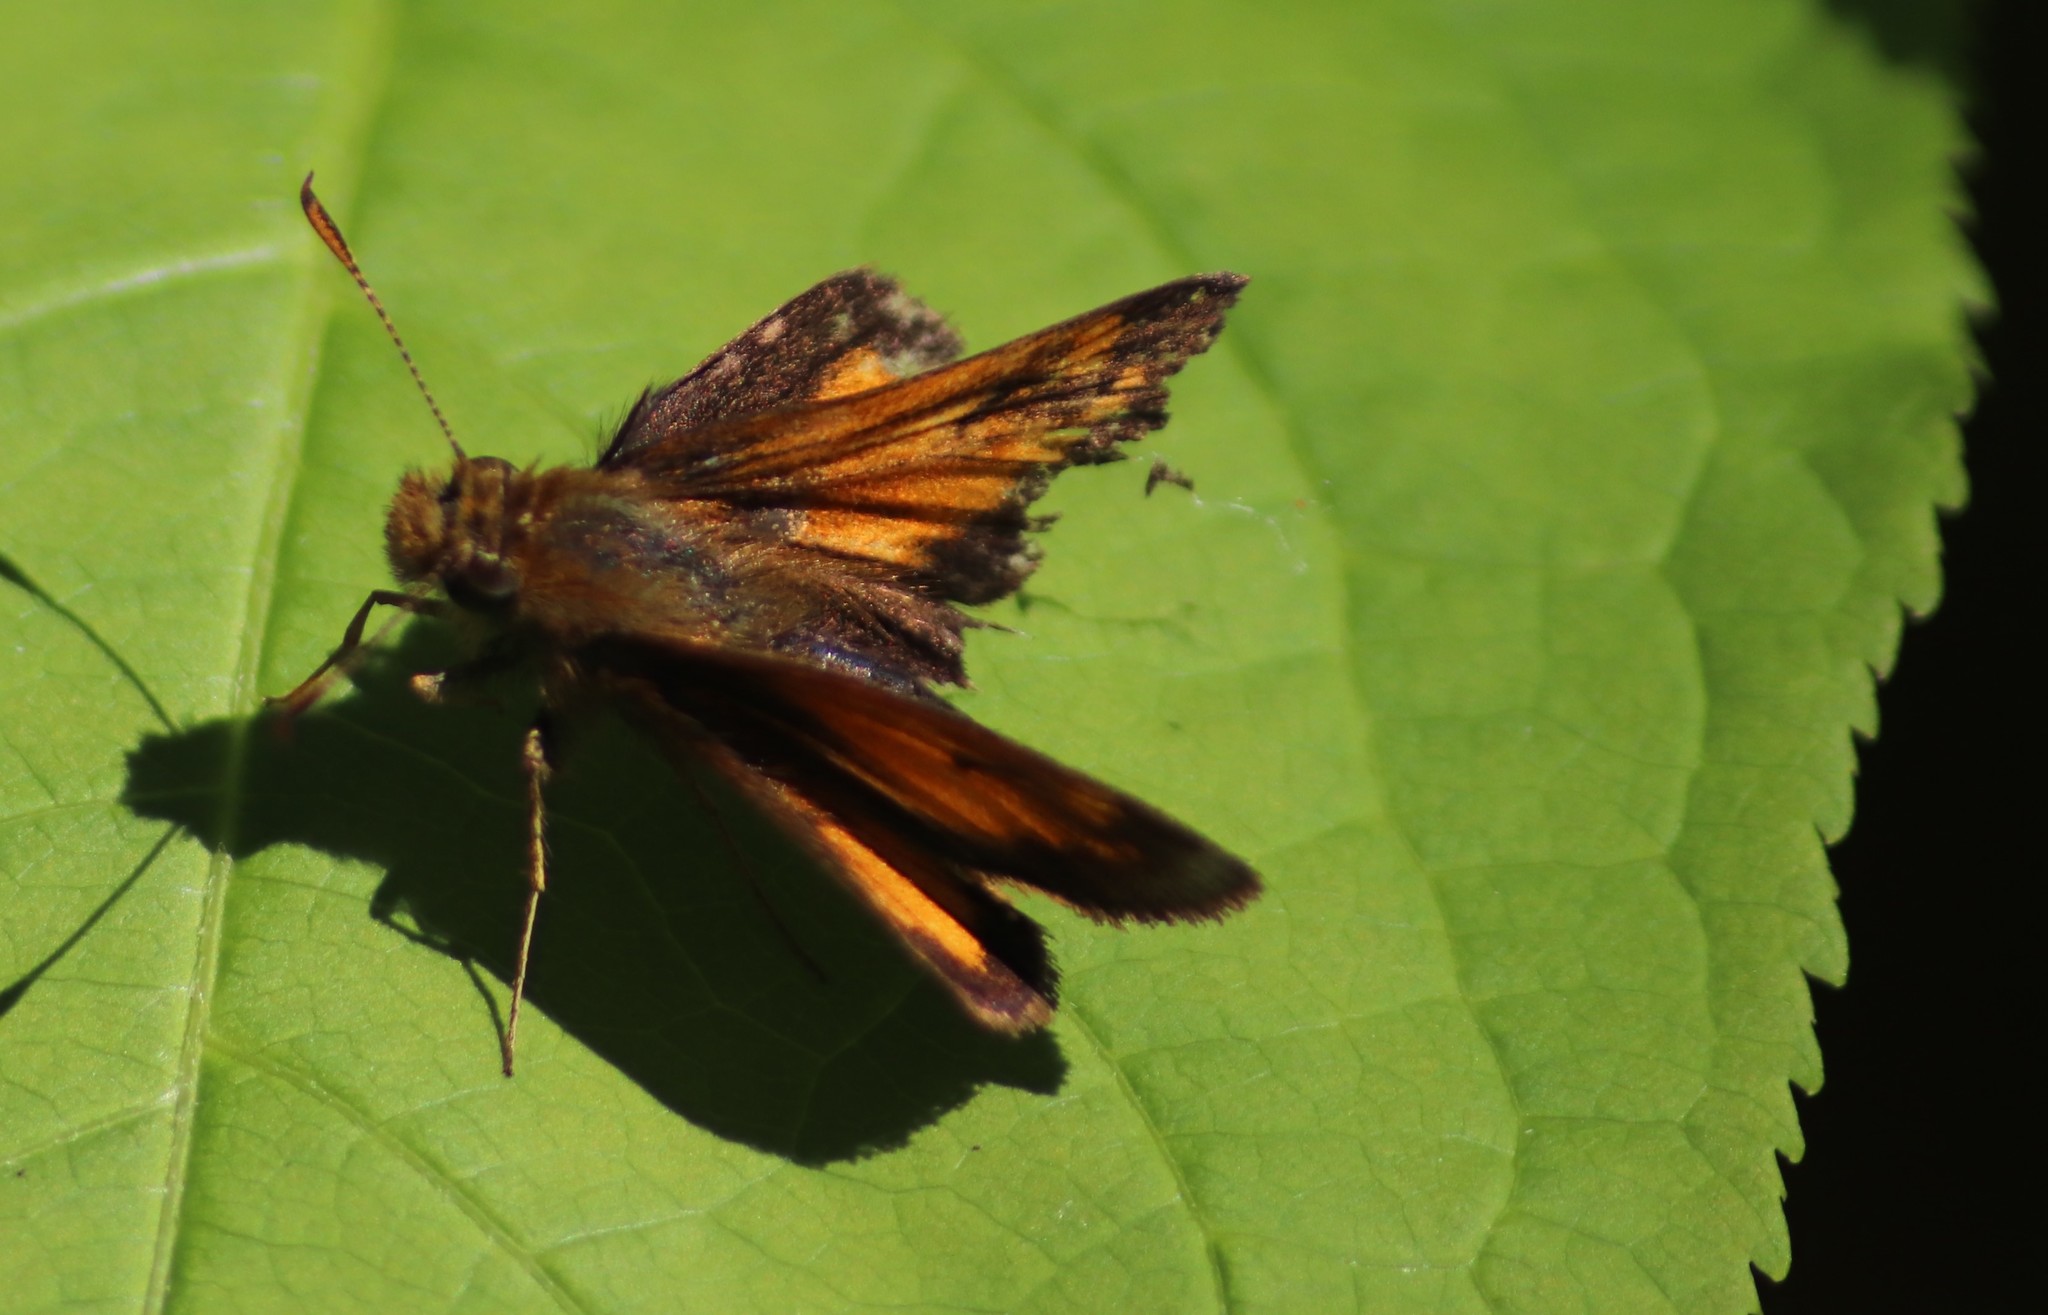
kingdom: Animalia
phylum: Arthropoda
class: Insecta
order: Lepidoptera
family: Hesperiidae
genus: Lon
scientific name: Lon hobomok
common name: Hobomok skipper
